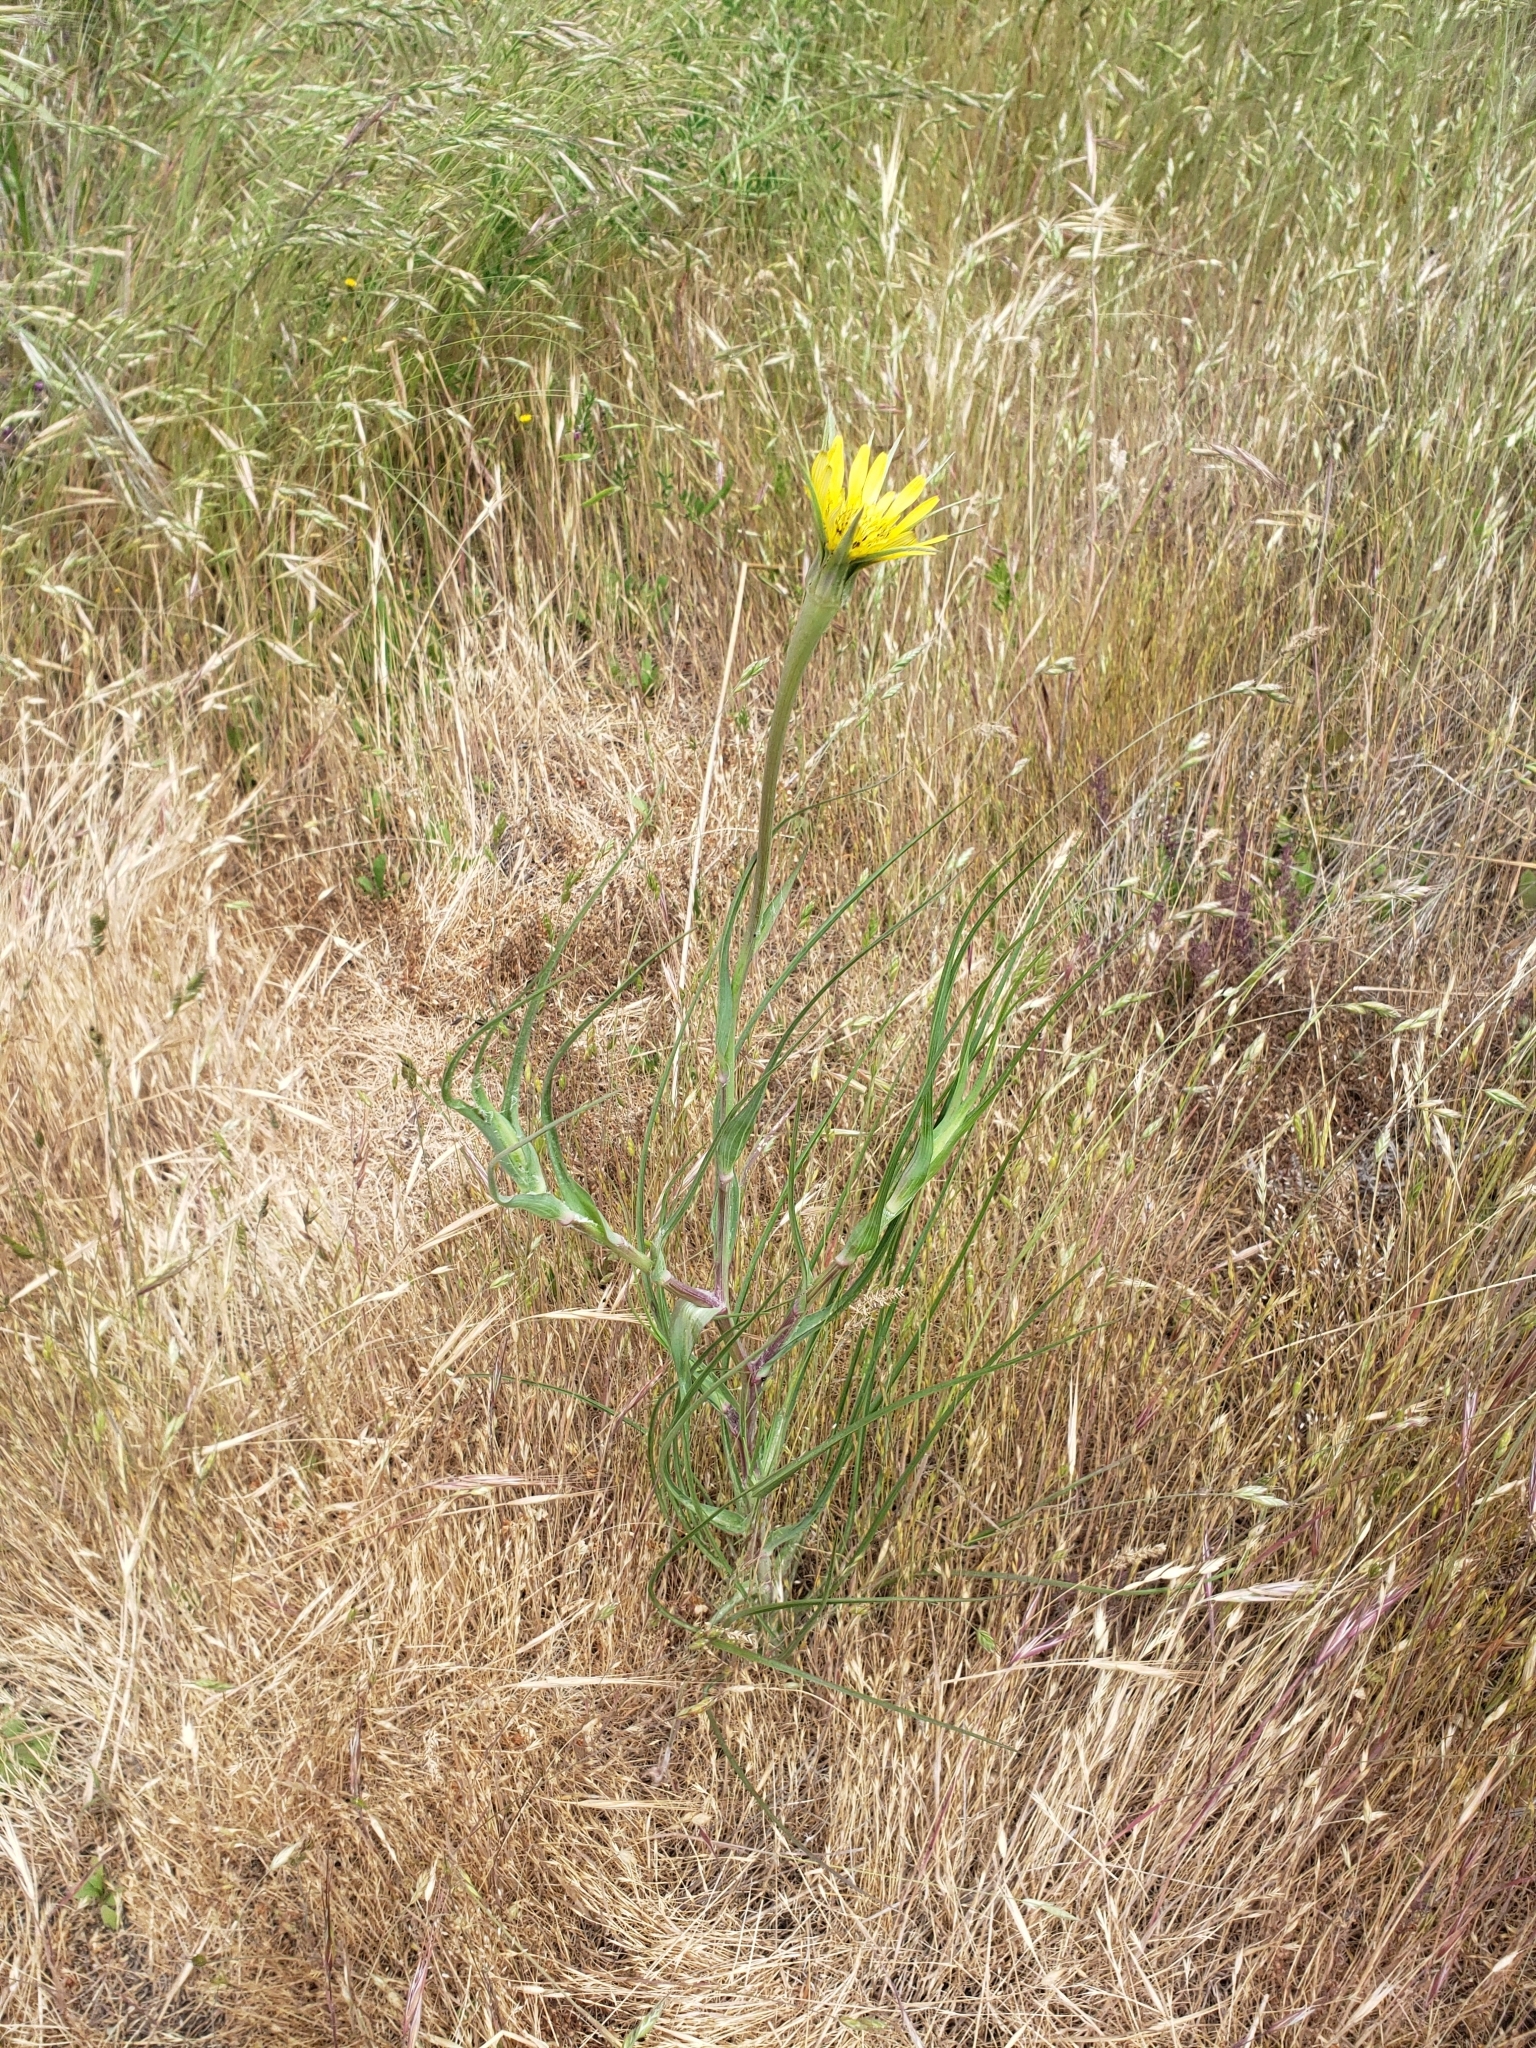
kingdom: Plantae
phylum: Tracheophyta
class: Magnoliopsida
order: Asterales
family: Asteraceae
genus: Tragopogon
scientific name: Tragopogon dubius
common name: Yellow salsify
